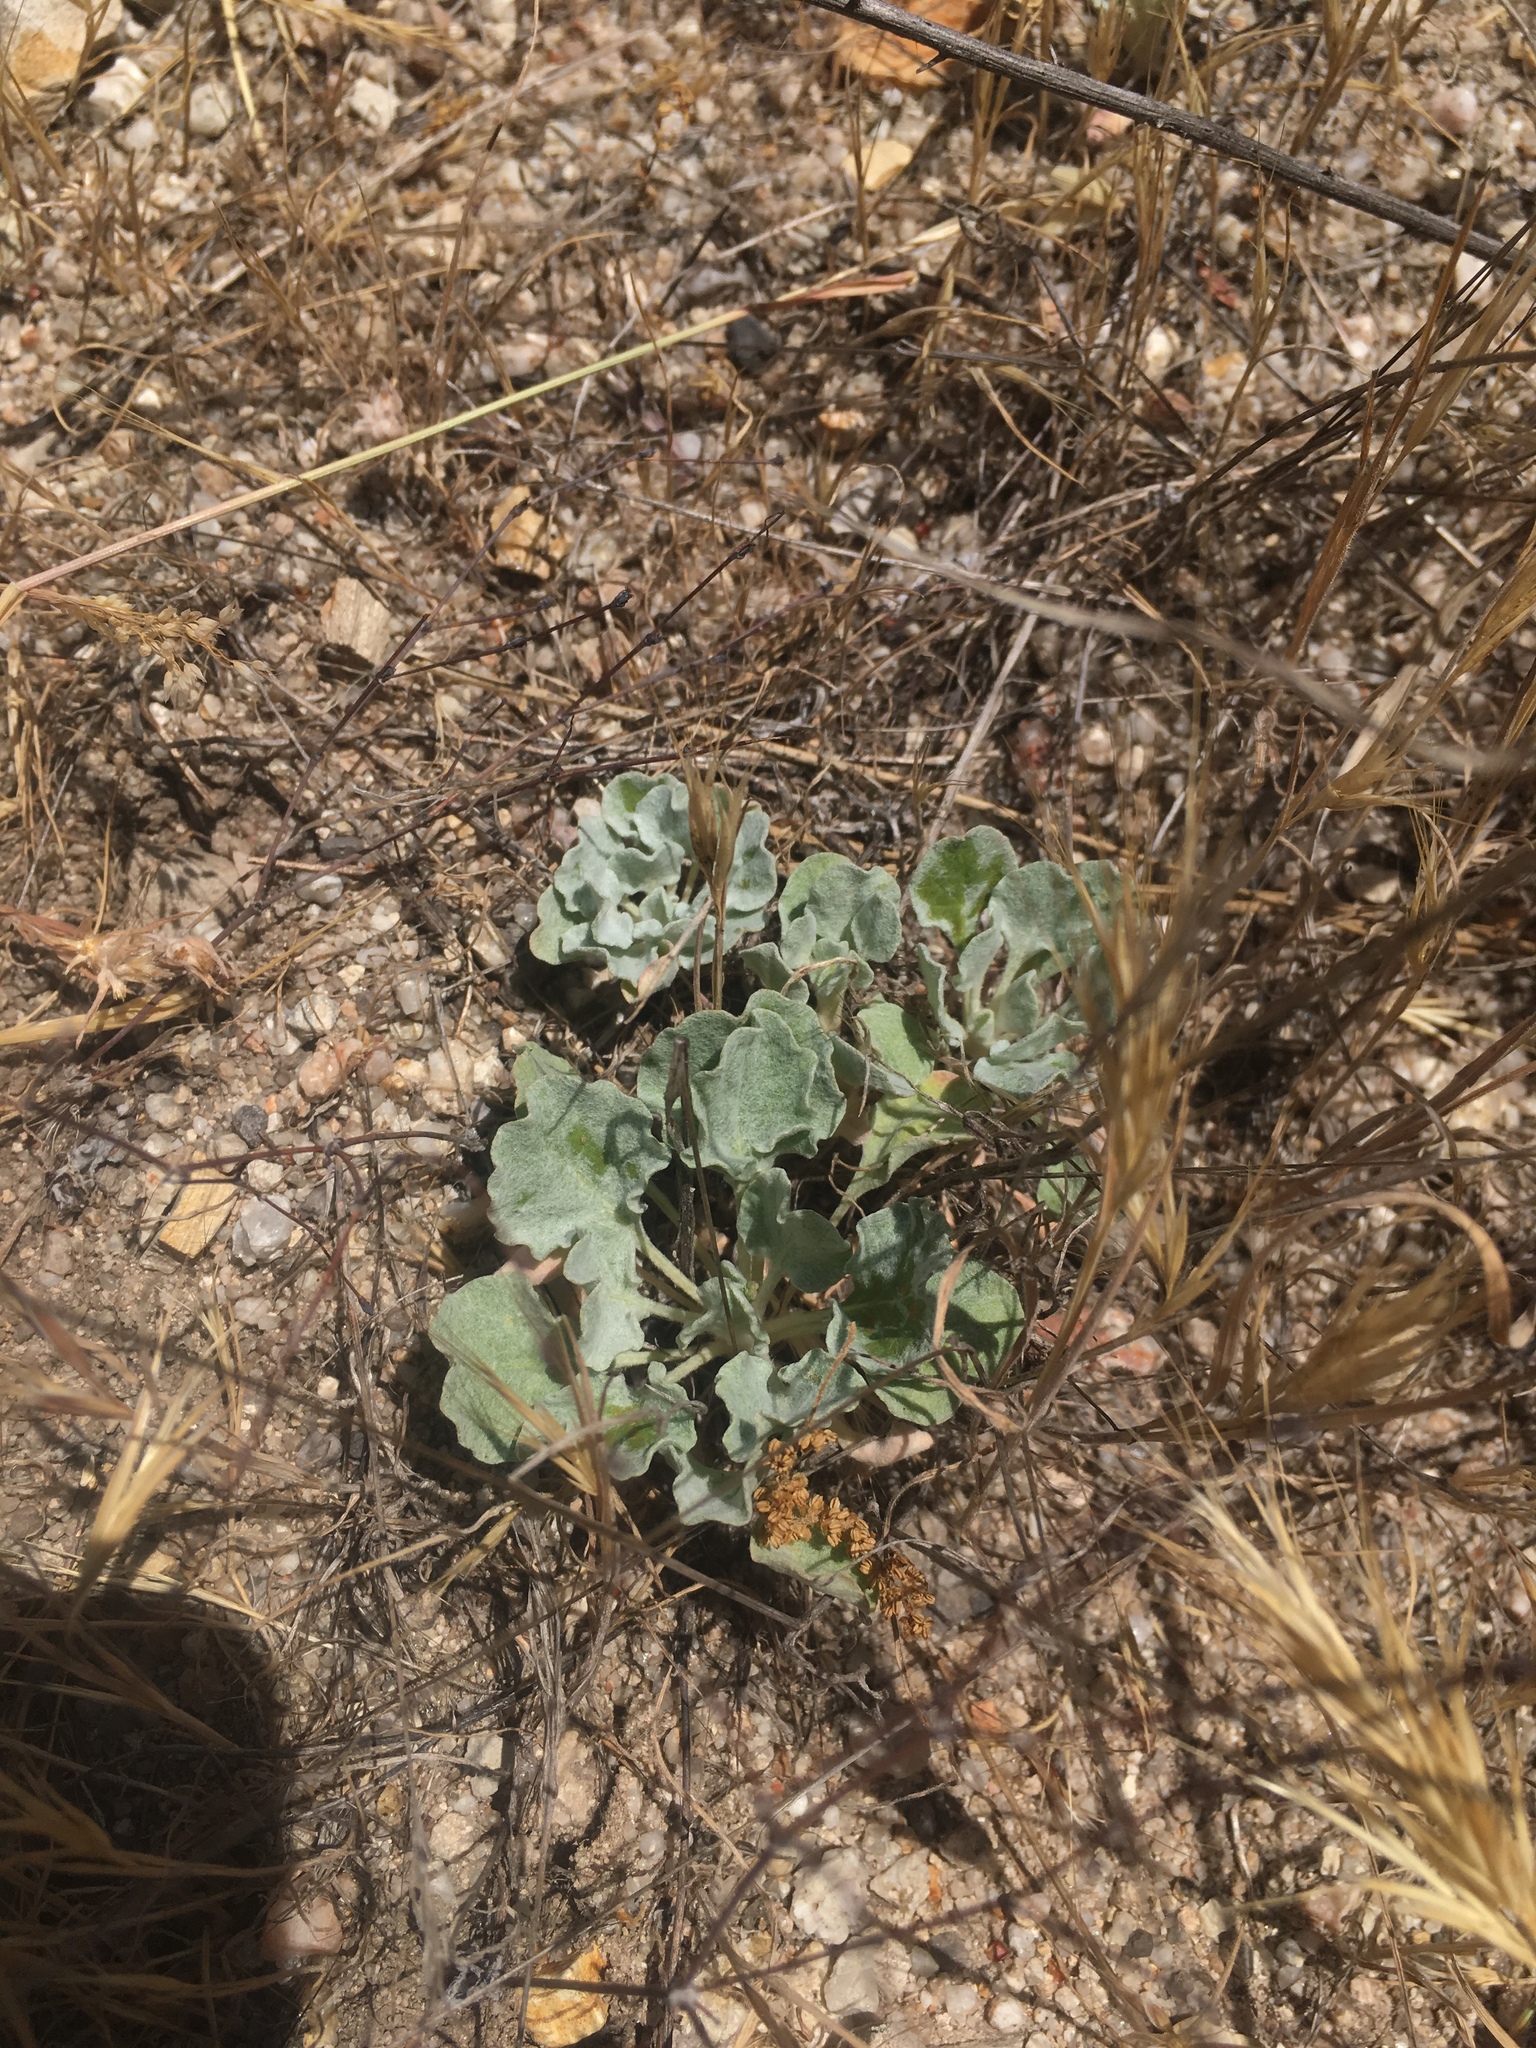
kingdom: Plantae
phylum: Tracheophyta
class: Magnoliopsida
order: Caryophyllales
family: Polygonaceae
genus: Eriogonum
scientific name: Eriogonum elegans
